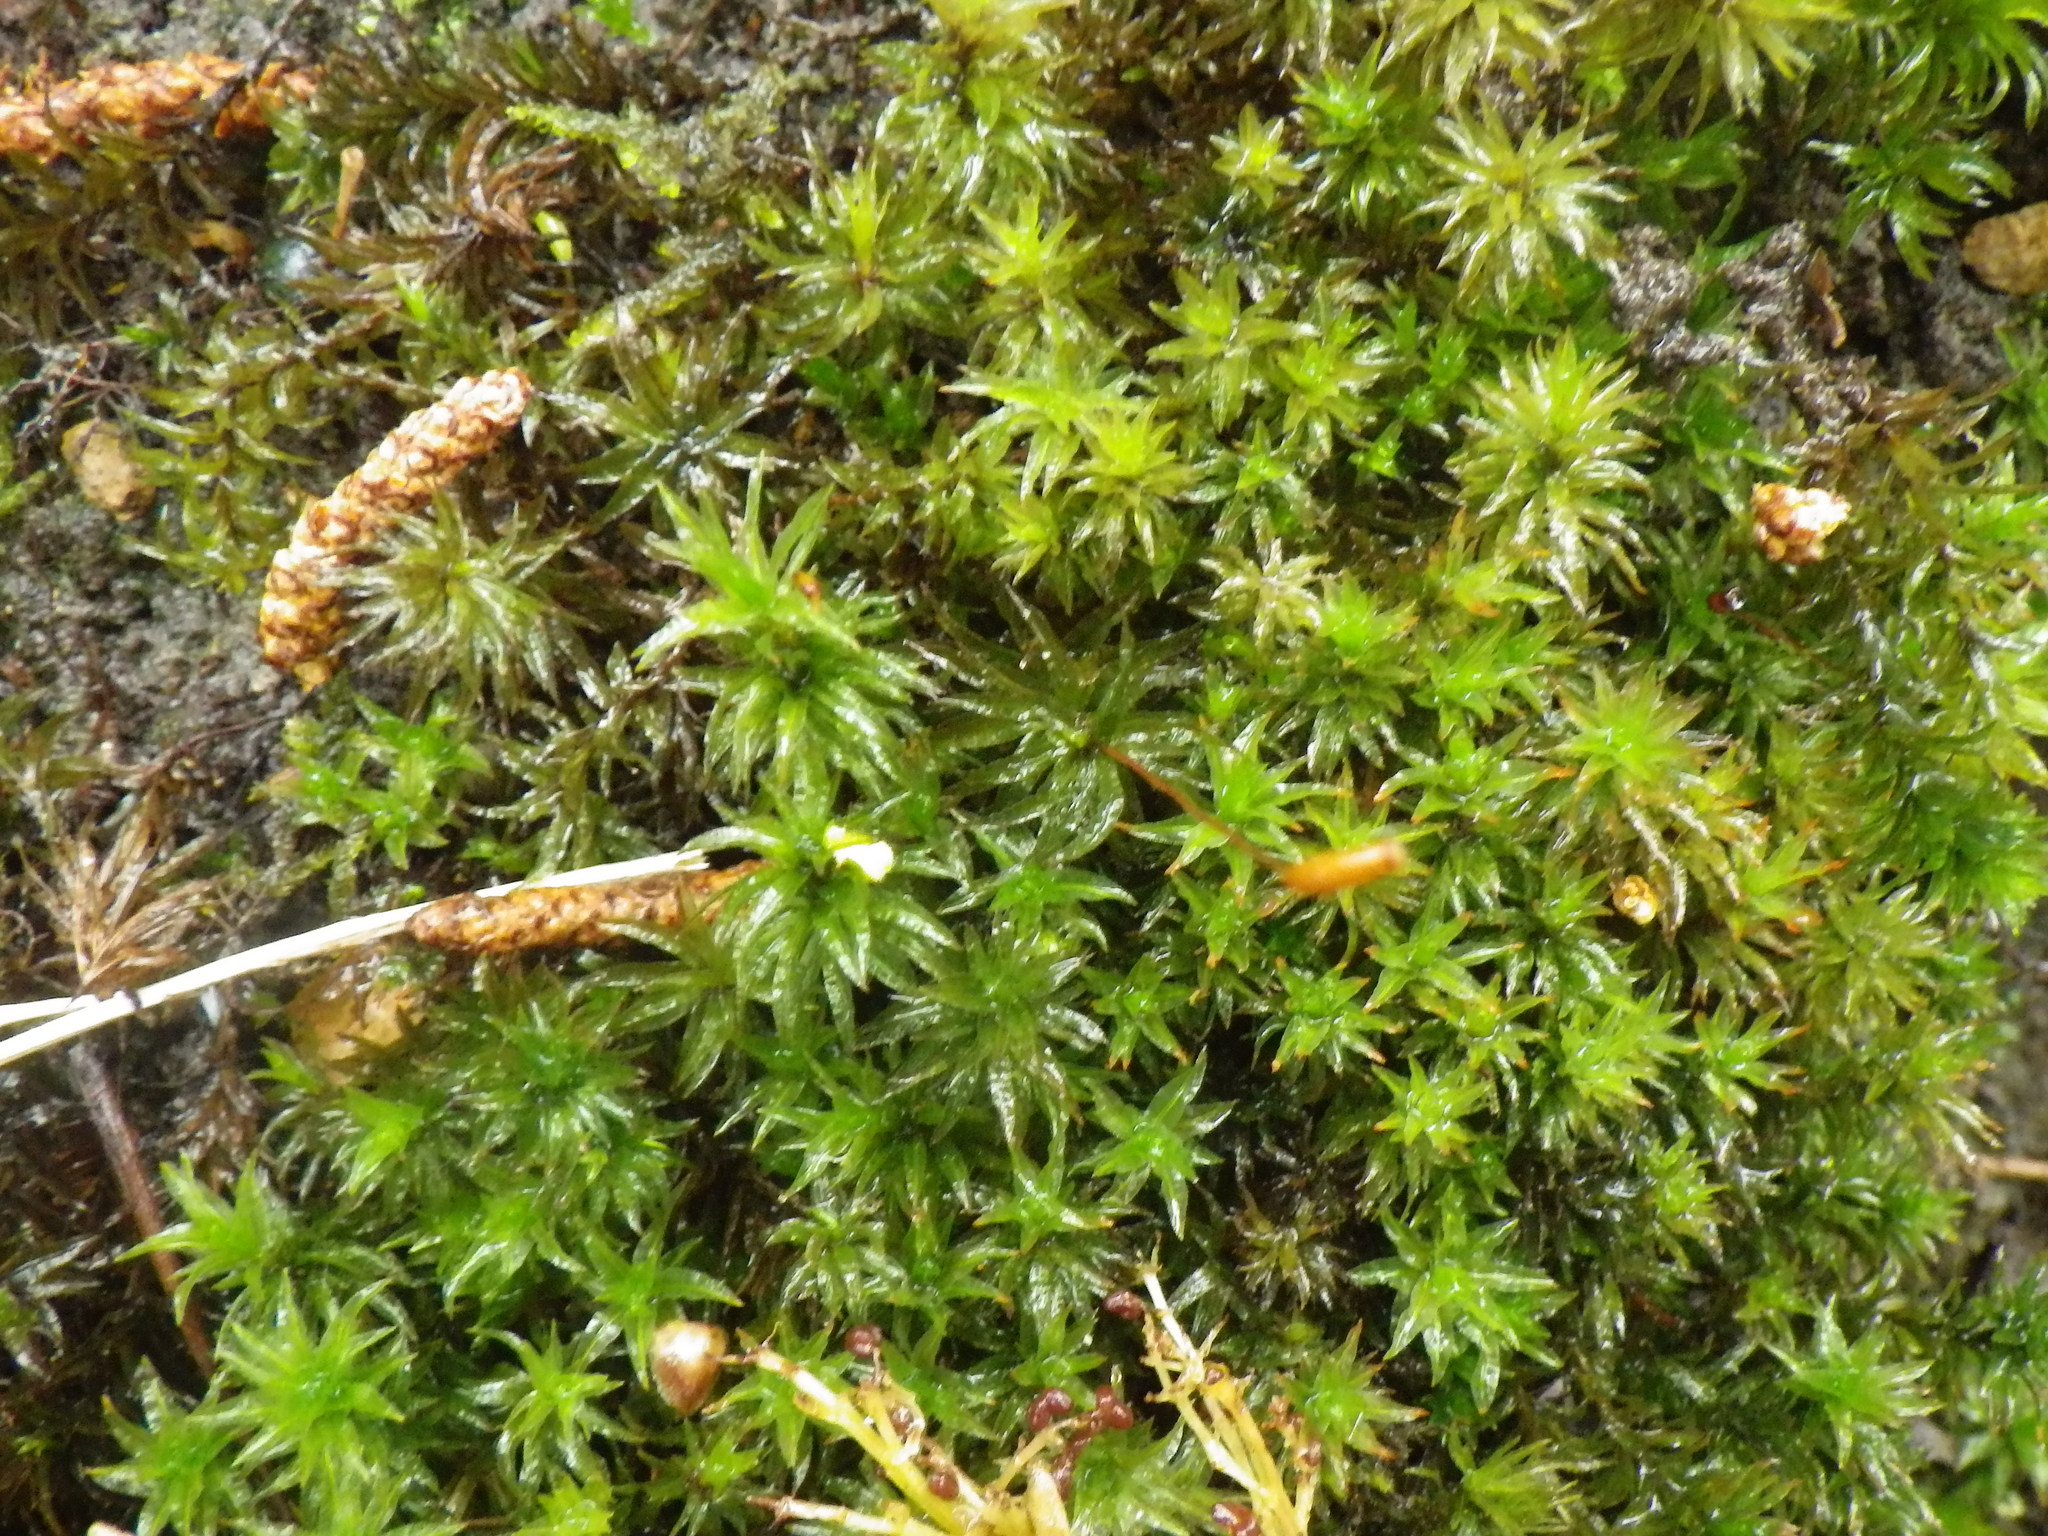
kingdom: Plantae
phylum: Bryophyta
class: Polytrichopsida
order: Polytrichales
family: Polytrichaceae
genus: Atrichum
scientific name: Atrichum undulatum
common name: Common smoothcap
